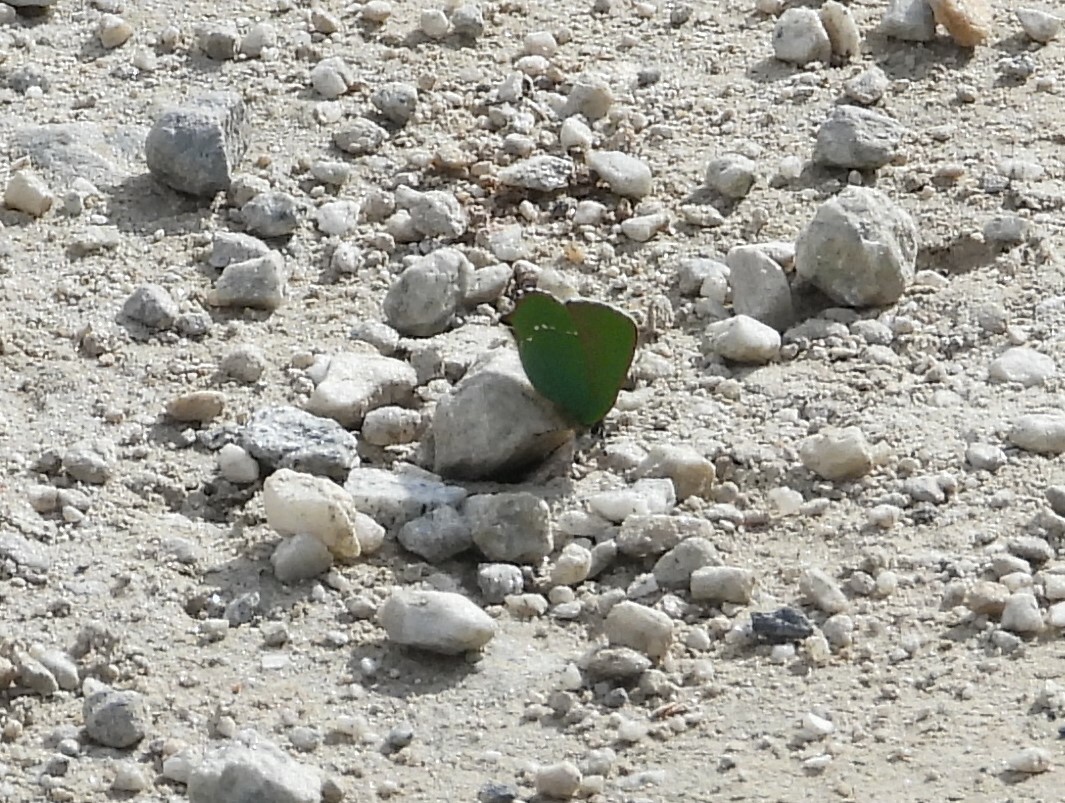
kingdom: Animalia
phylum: Arthropoda
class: Insecta
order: Lepidoptera
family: Lycaenidae
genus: Callophrys
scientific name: Callophrys rubi
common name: Green hairstreak
